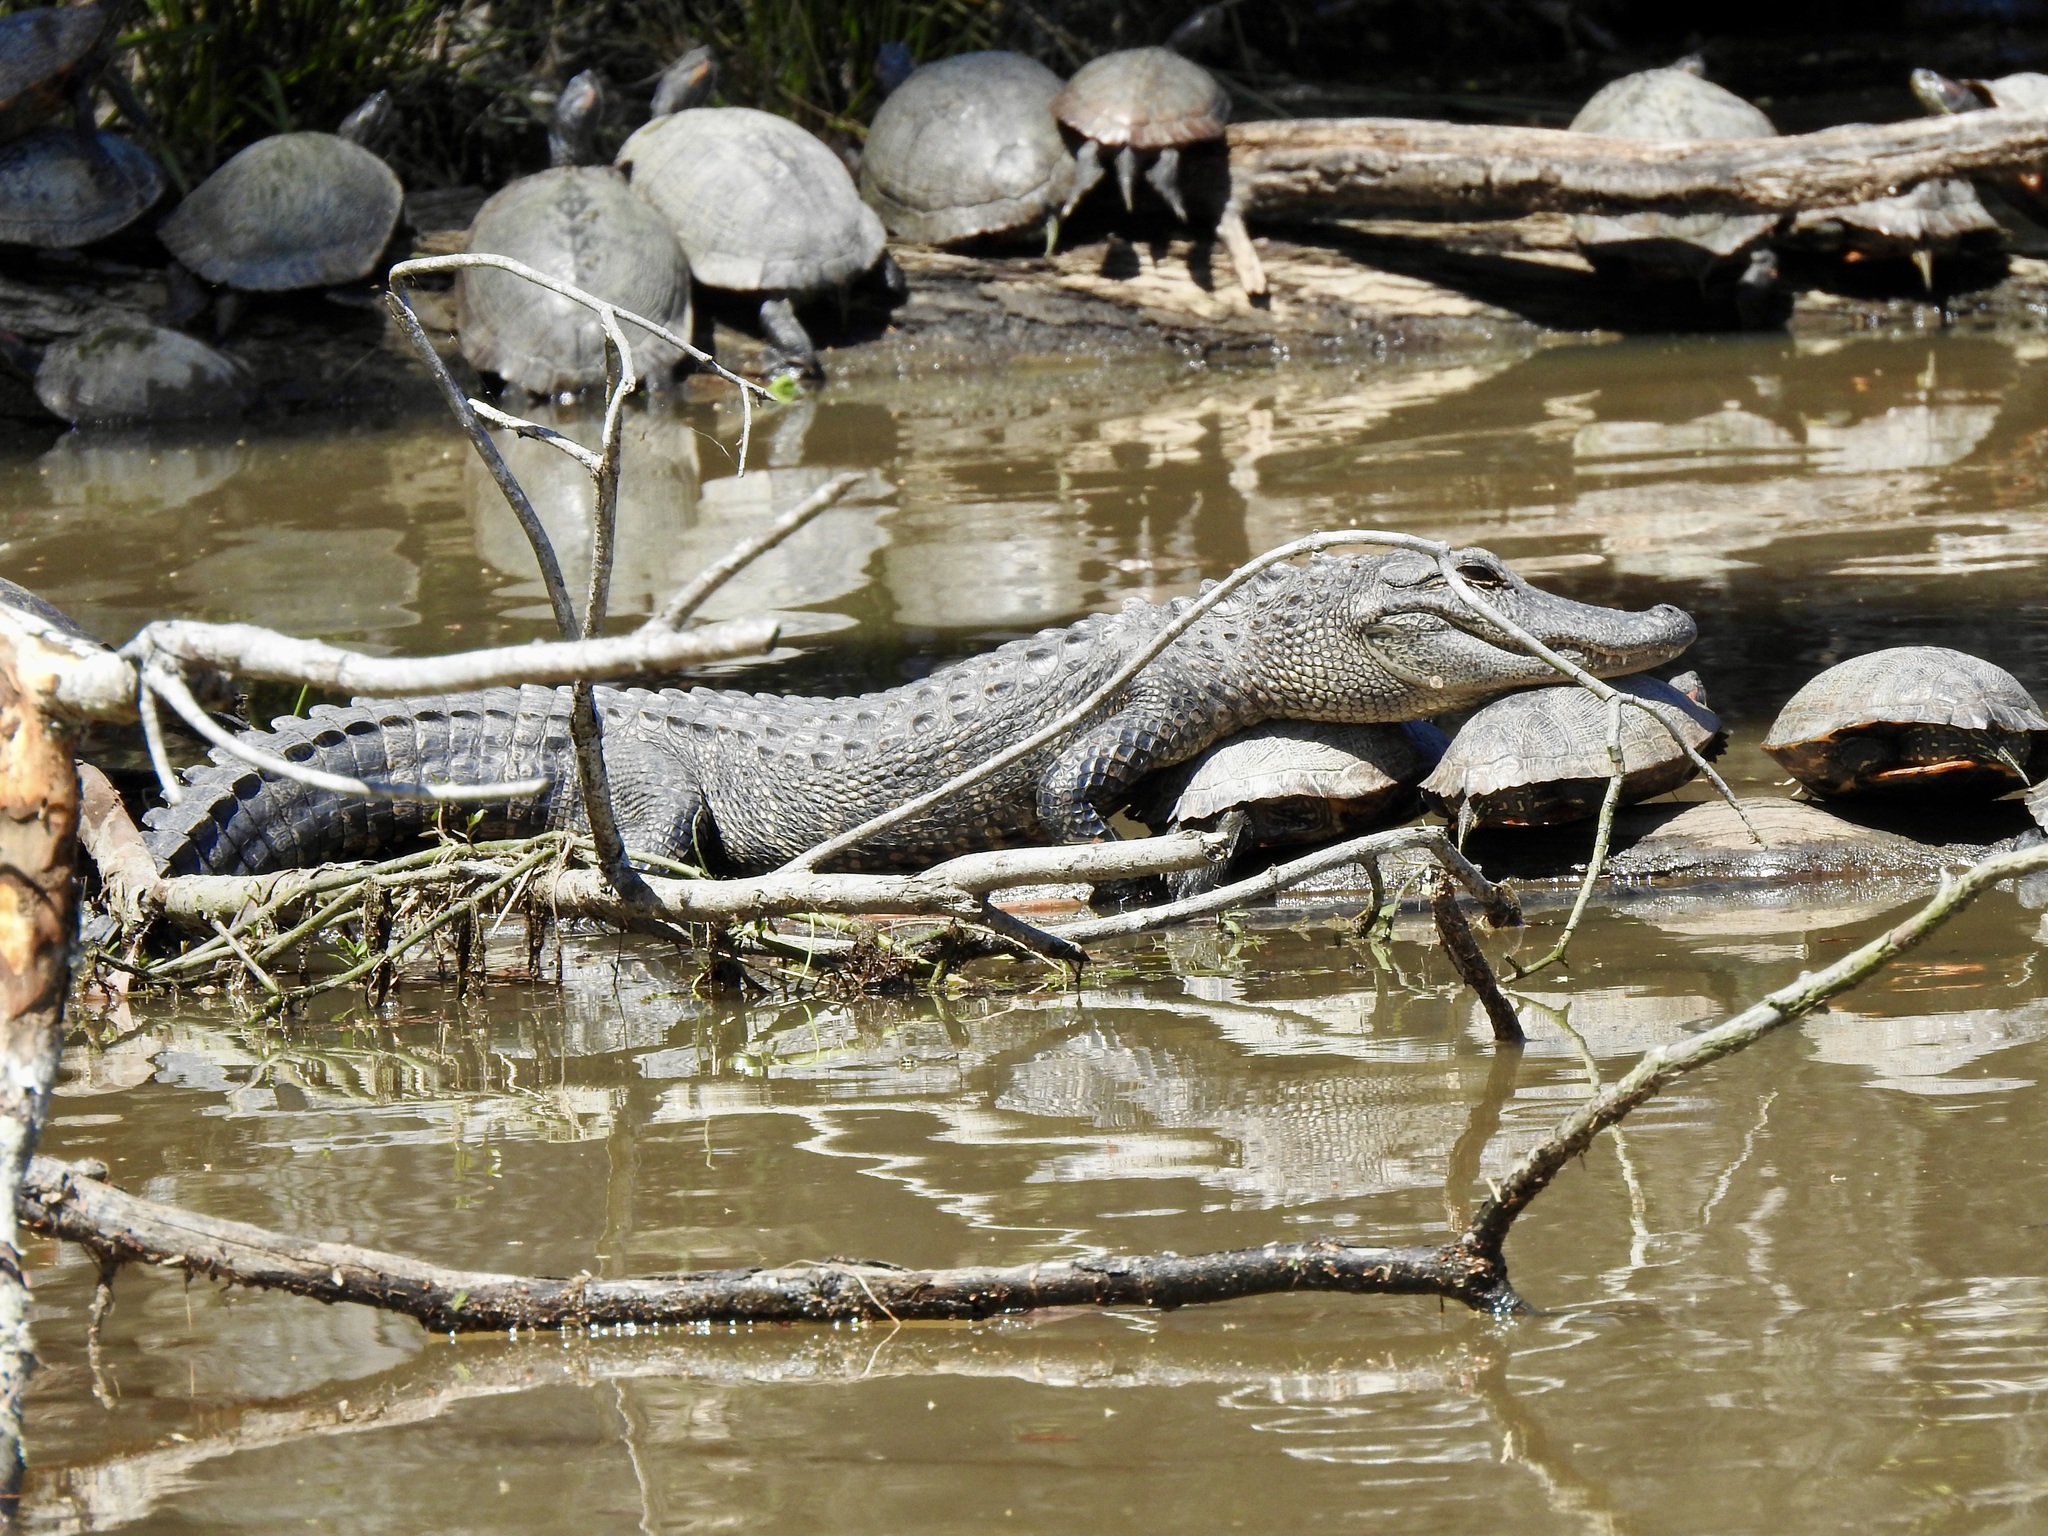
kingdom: Animalia
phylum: Chordata
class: Crocodylia
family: Alligatoridae
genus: Alligator
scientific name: Alligator mississippiensis
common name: American alligator
